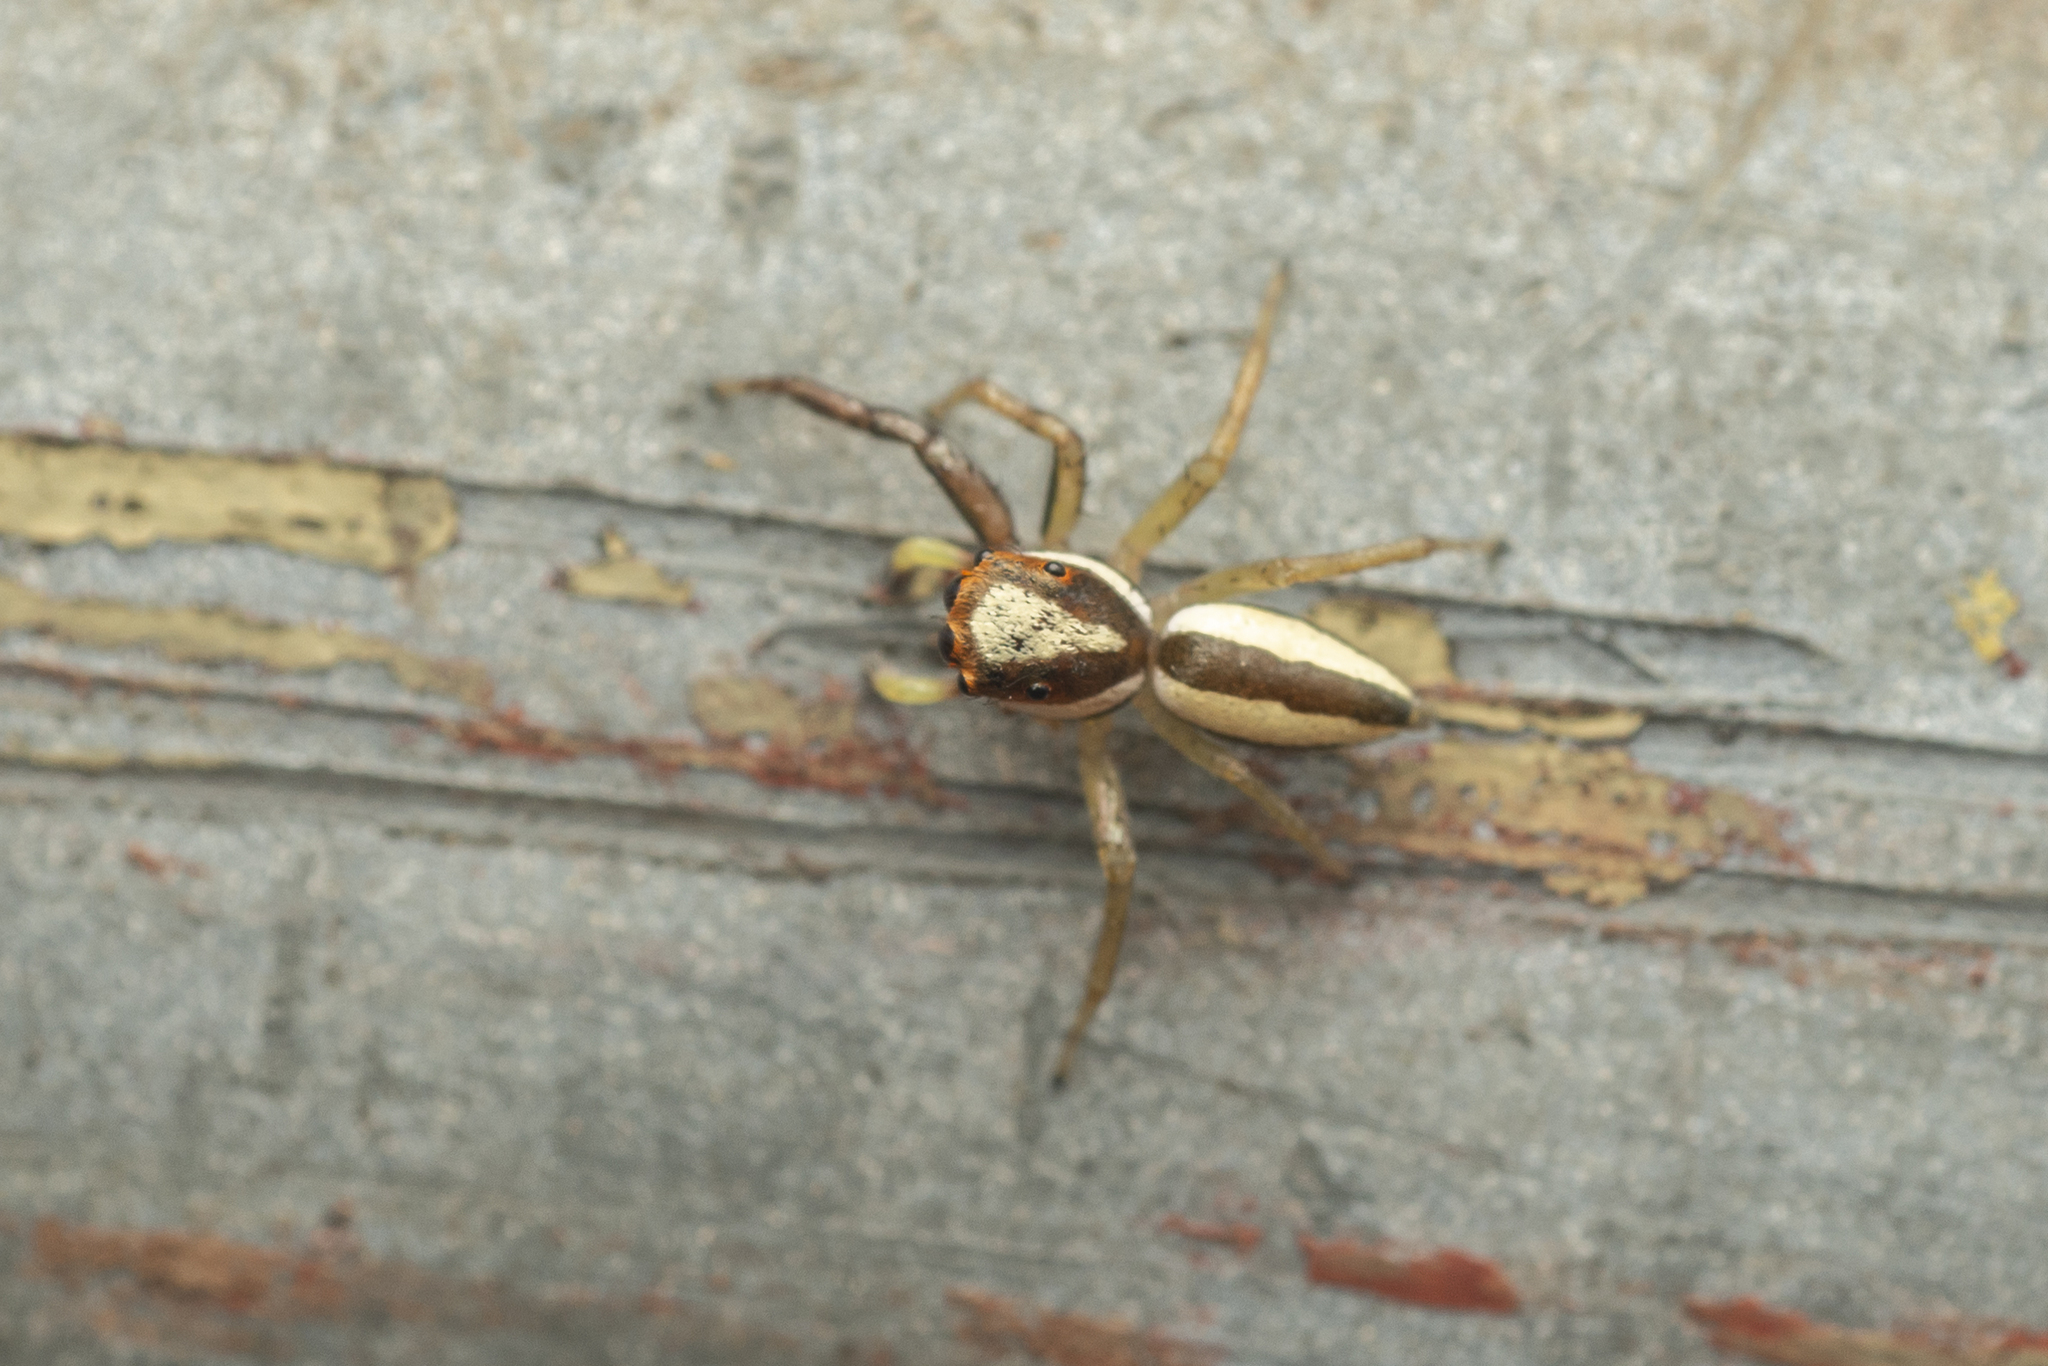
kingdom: Animalia
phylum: Arthropoda
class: Arachnida
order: Araneae
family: Salticidae
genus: Epocilla
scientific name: Epocilla blairei
